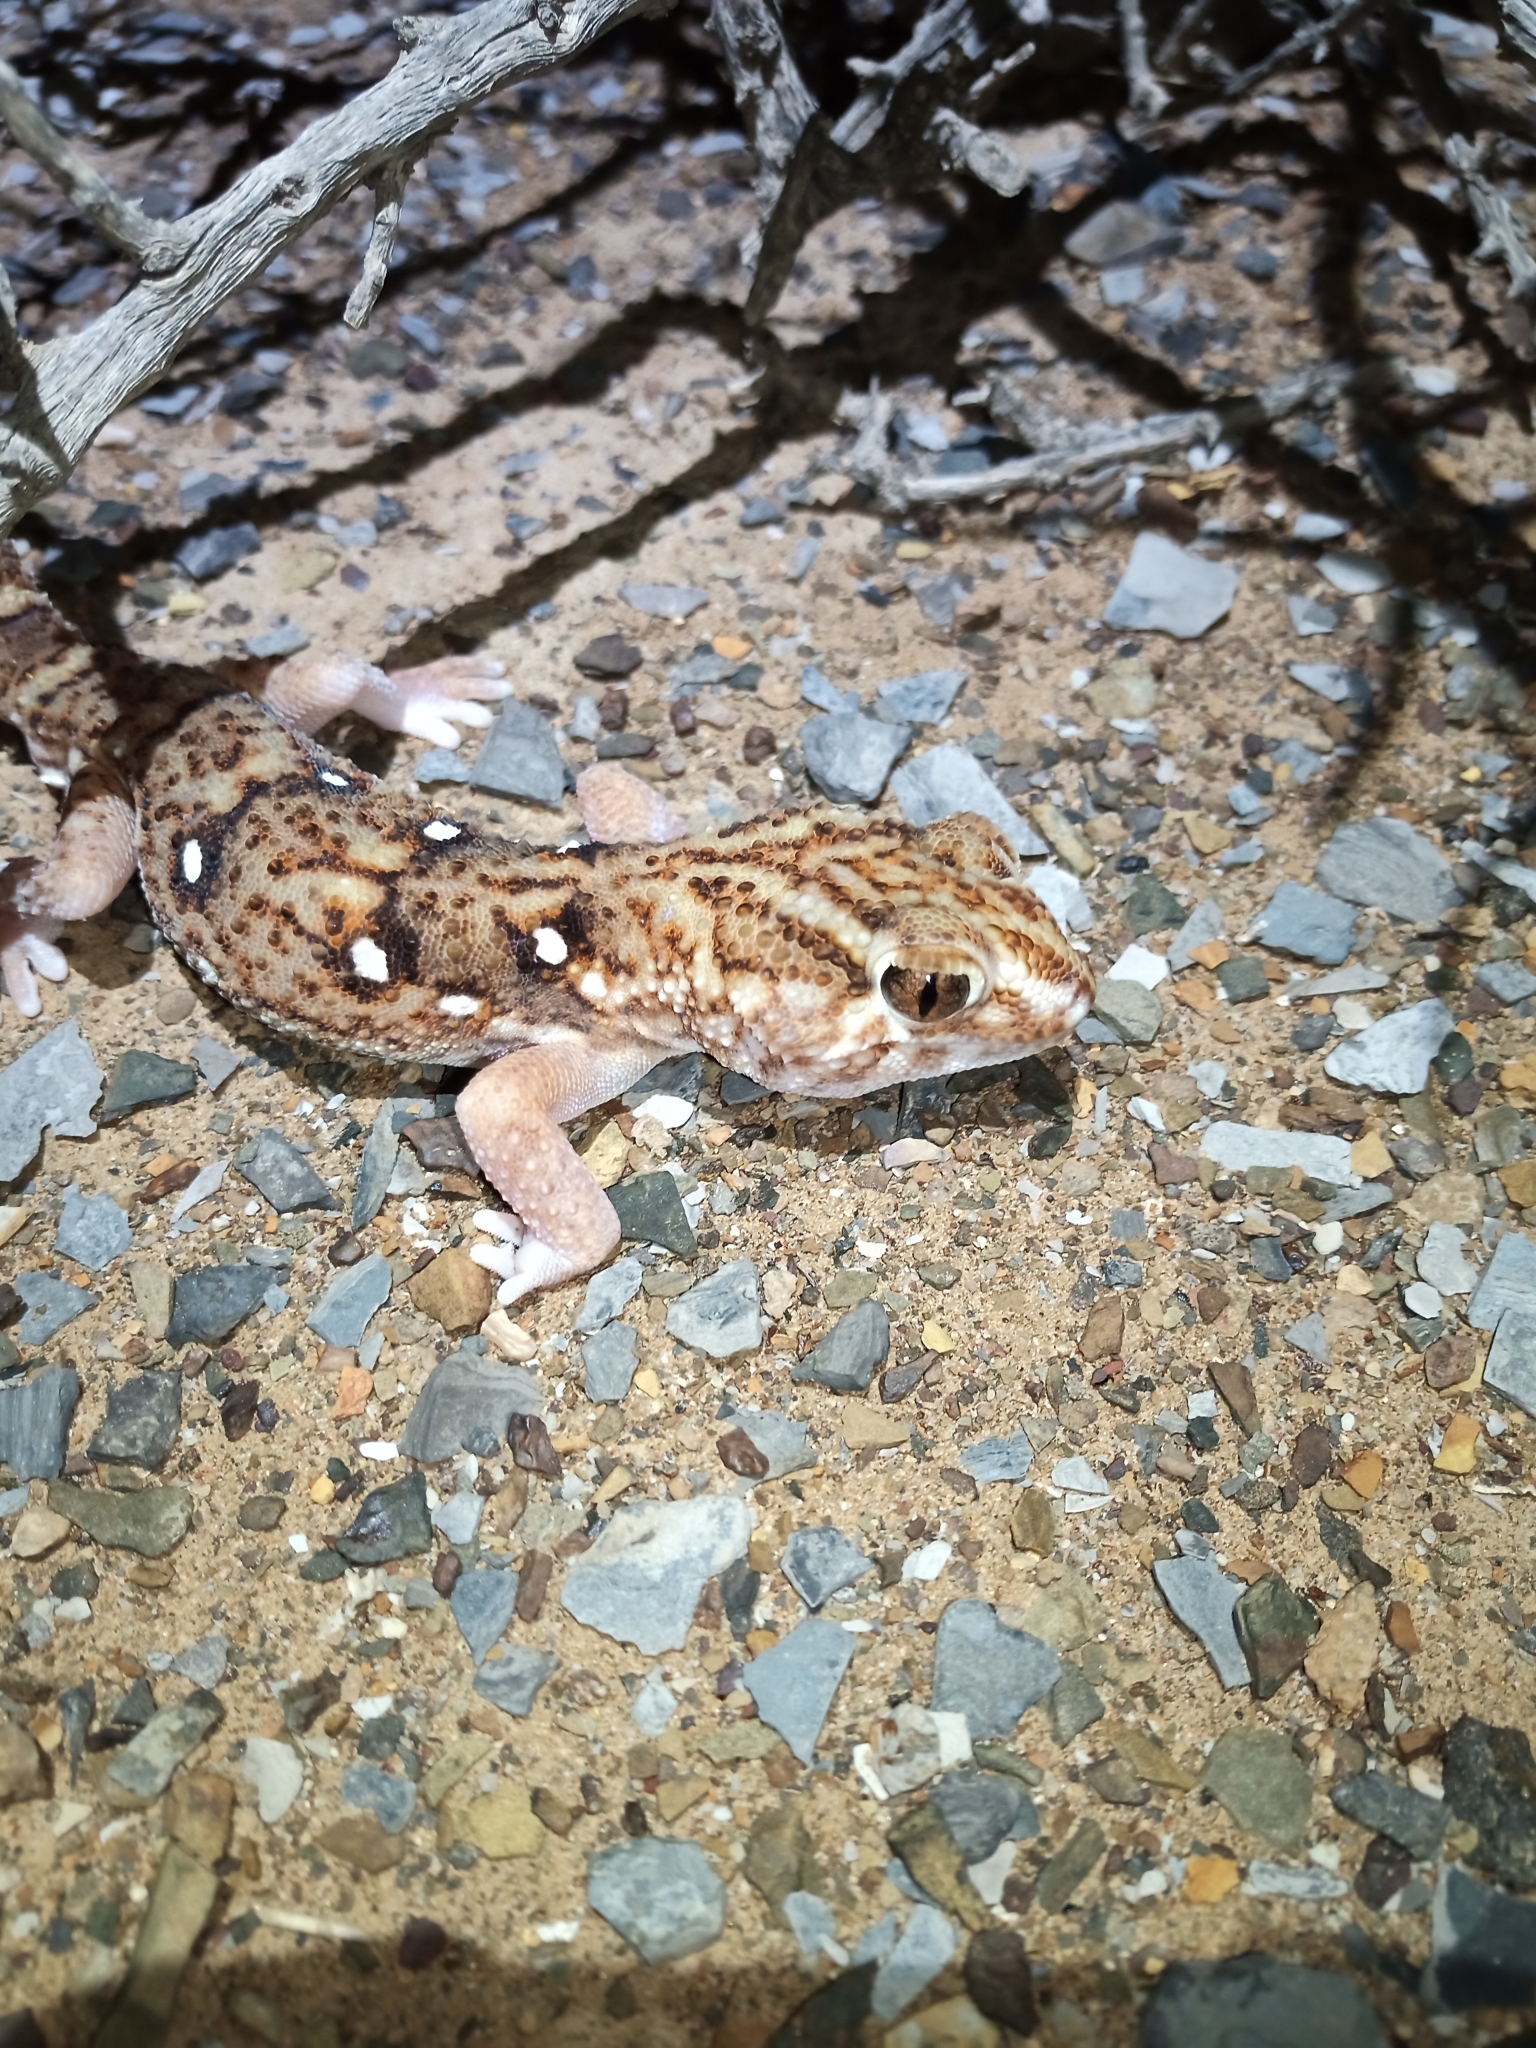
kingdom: Animalia
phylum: Chordata
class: Squamata
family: Gekkonidae
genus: Chondrodactylus
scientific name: Chondrodactylus angulifer
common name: Common giant ground gecko
